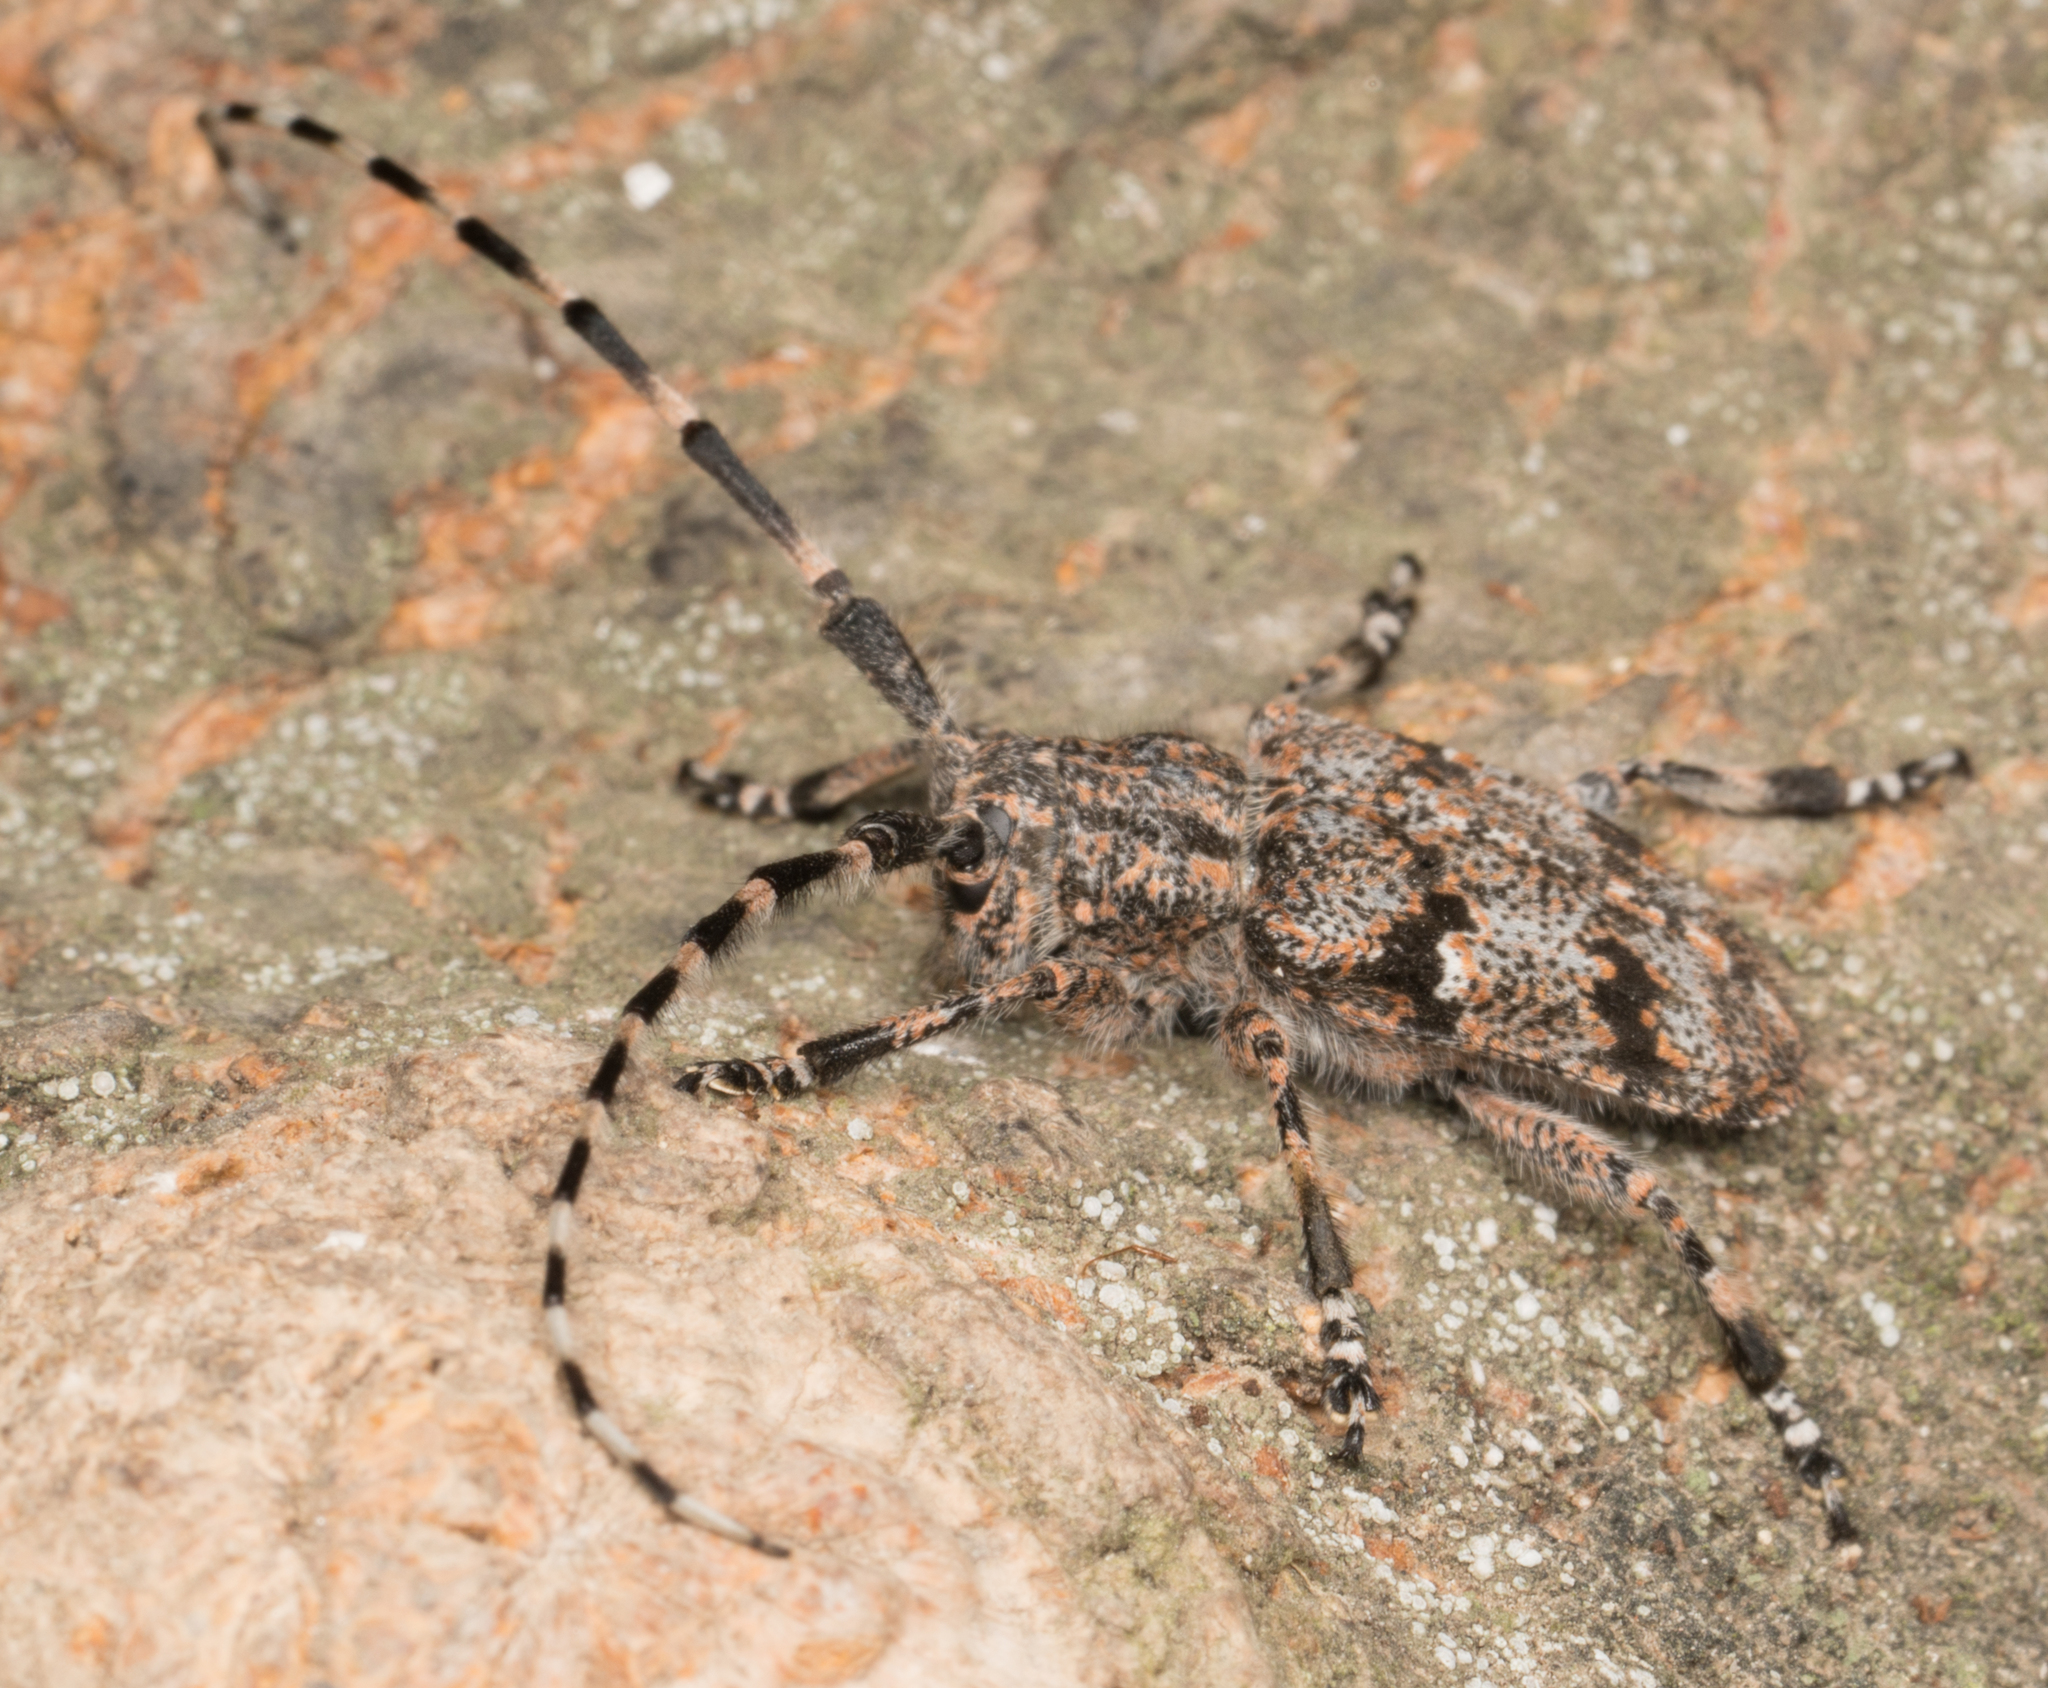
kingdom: Animalia
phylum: Arthropoda
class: Insecta
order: Coleoptera
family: Cerambycidae
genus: Synaphaeta
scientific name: Synaphaeta guexi
